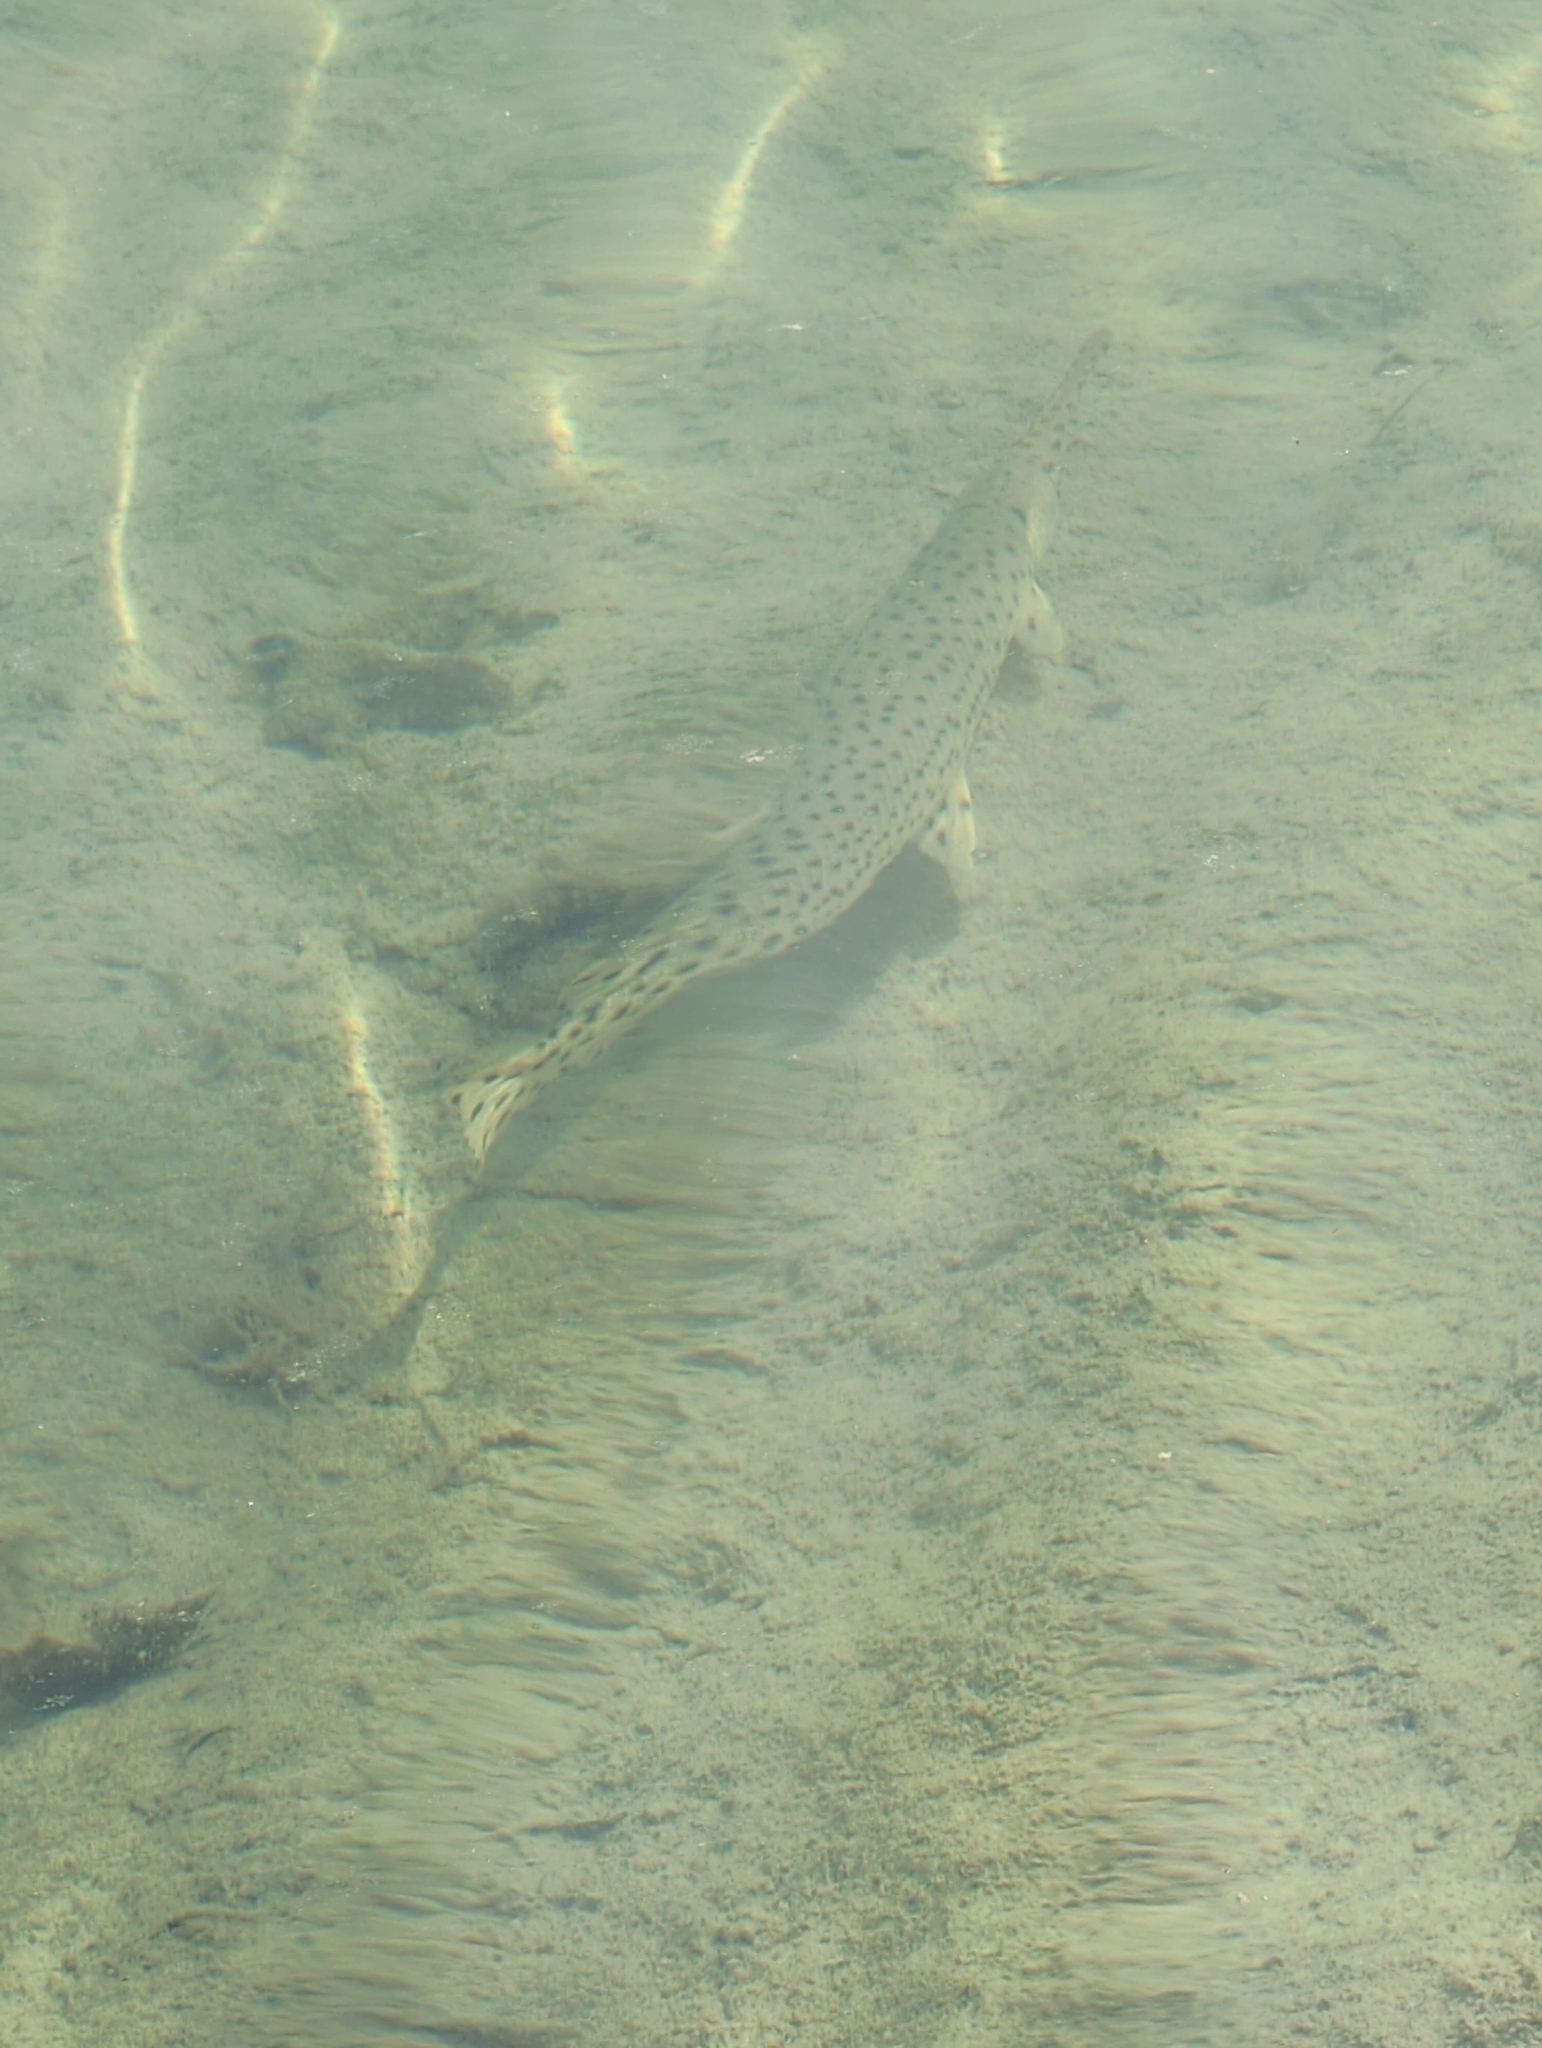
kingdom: Animalia
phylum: Chordata
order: Lepisosteiformes
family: Lepisosteidae
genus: Lepisosteus
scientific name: Lepisosteus osseus
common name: Longnose gar
